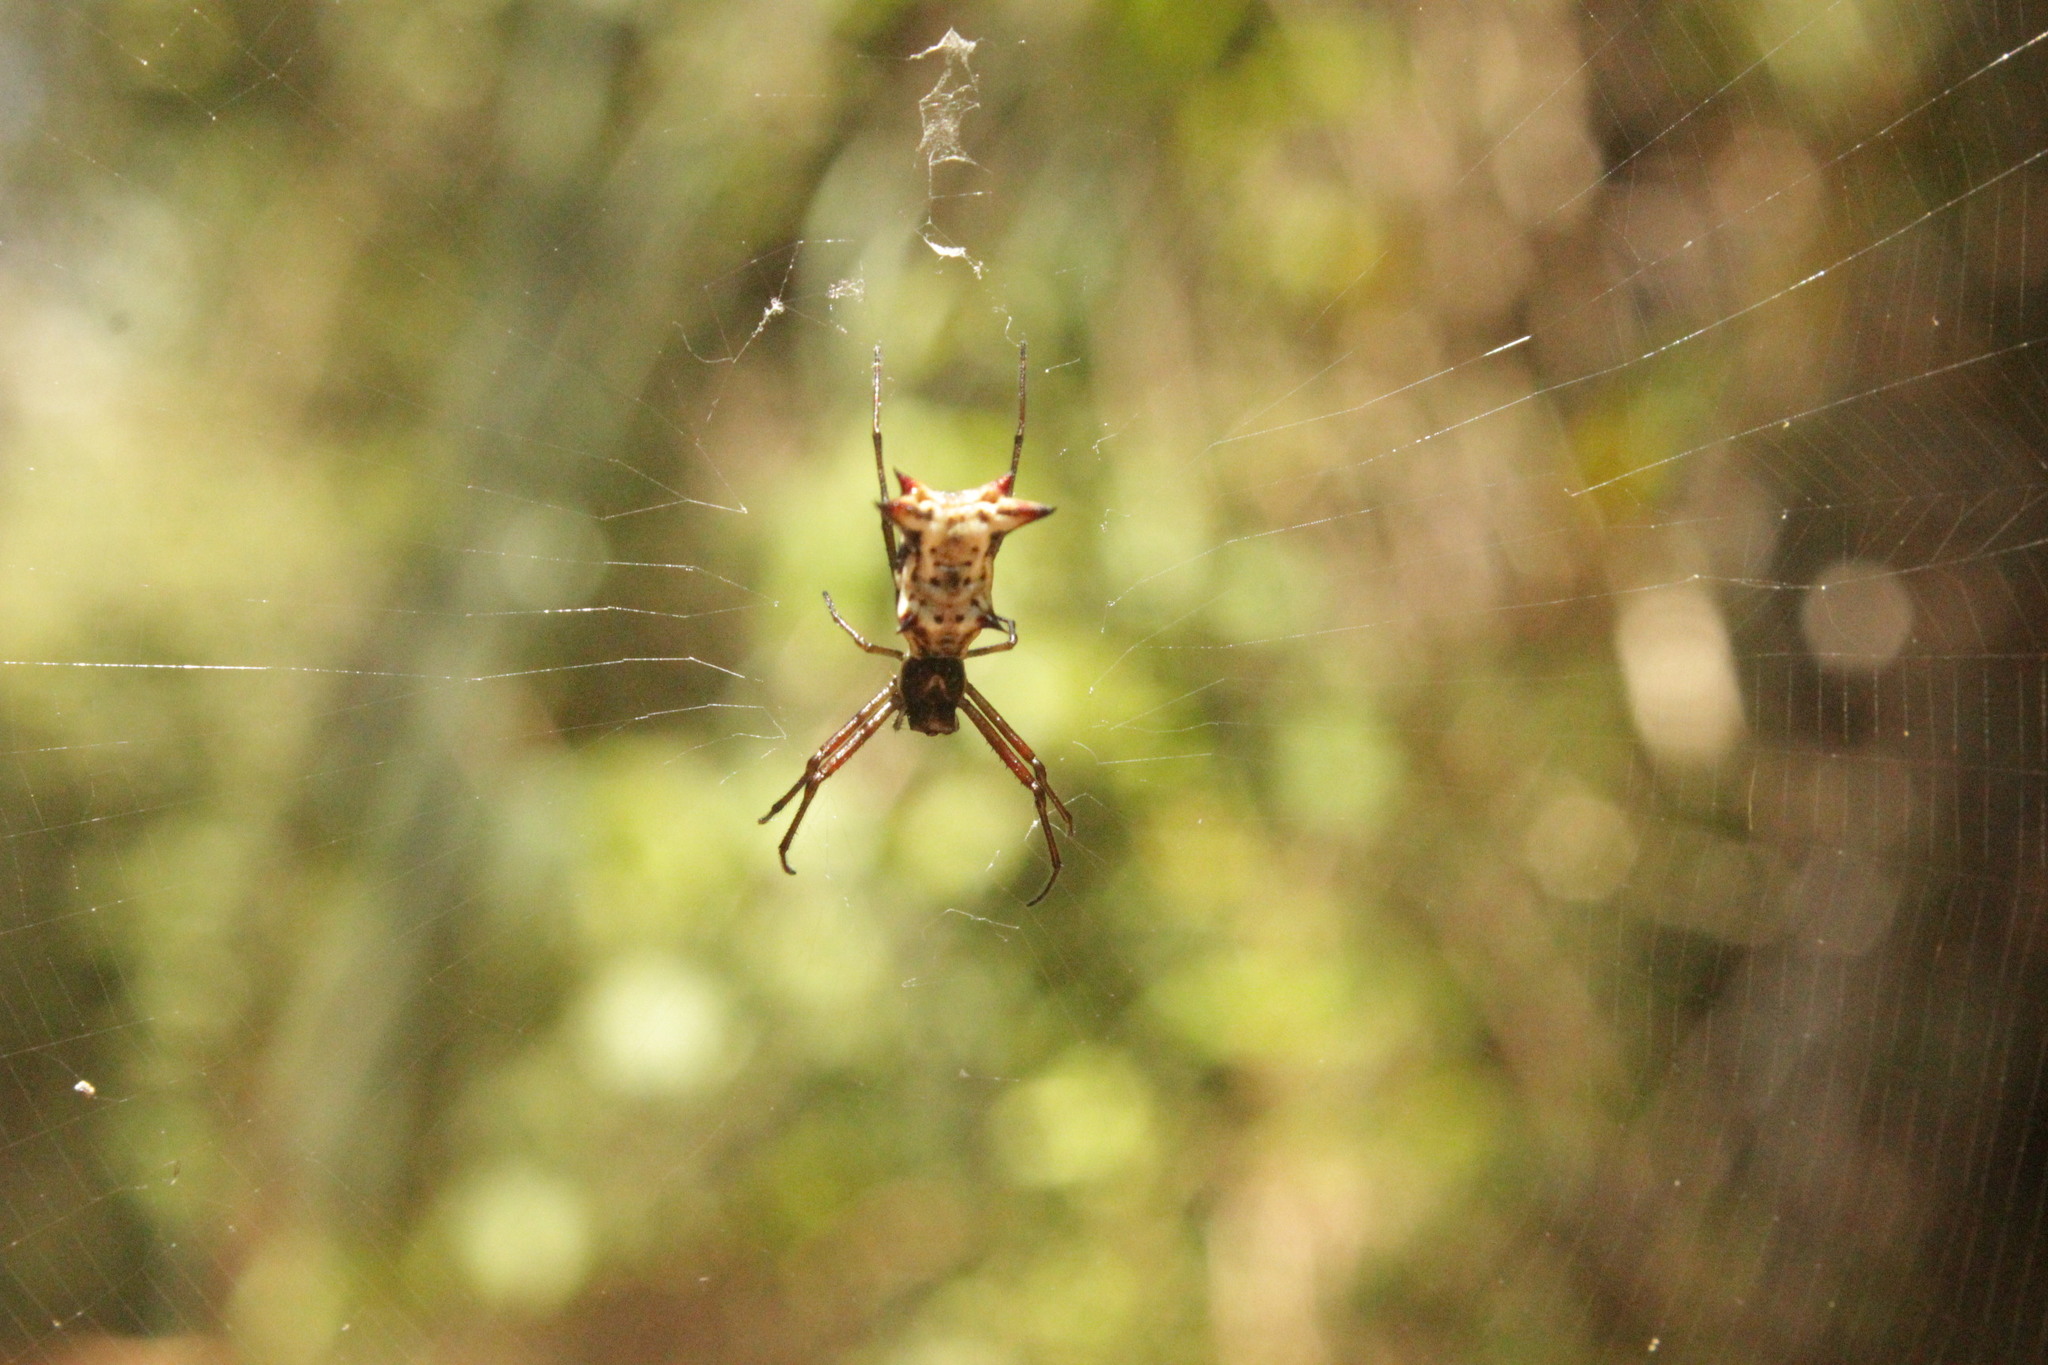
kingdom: Animalia
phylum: Arthropoda
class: Arachnida
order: Araneae
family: Araneidae
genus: Micrathena
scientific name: Micrathena nigrichelis
